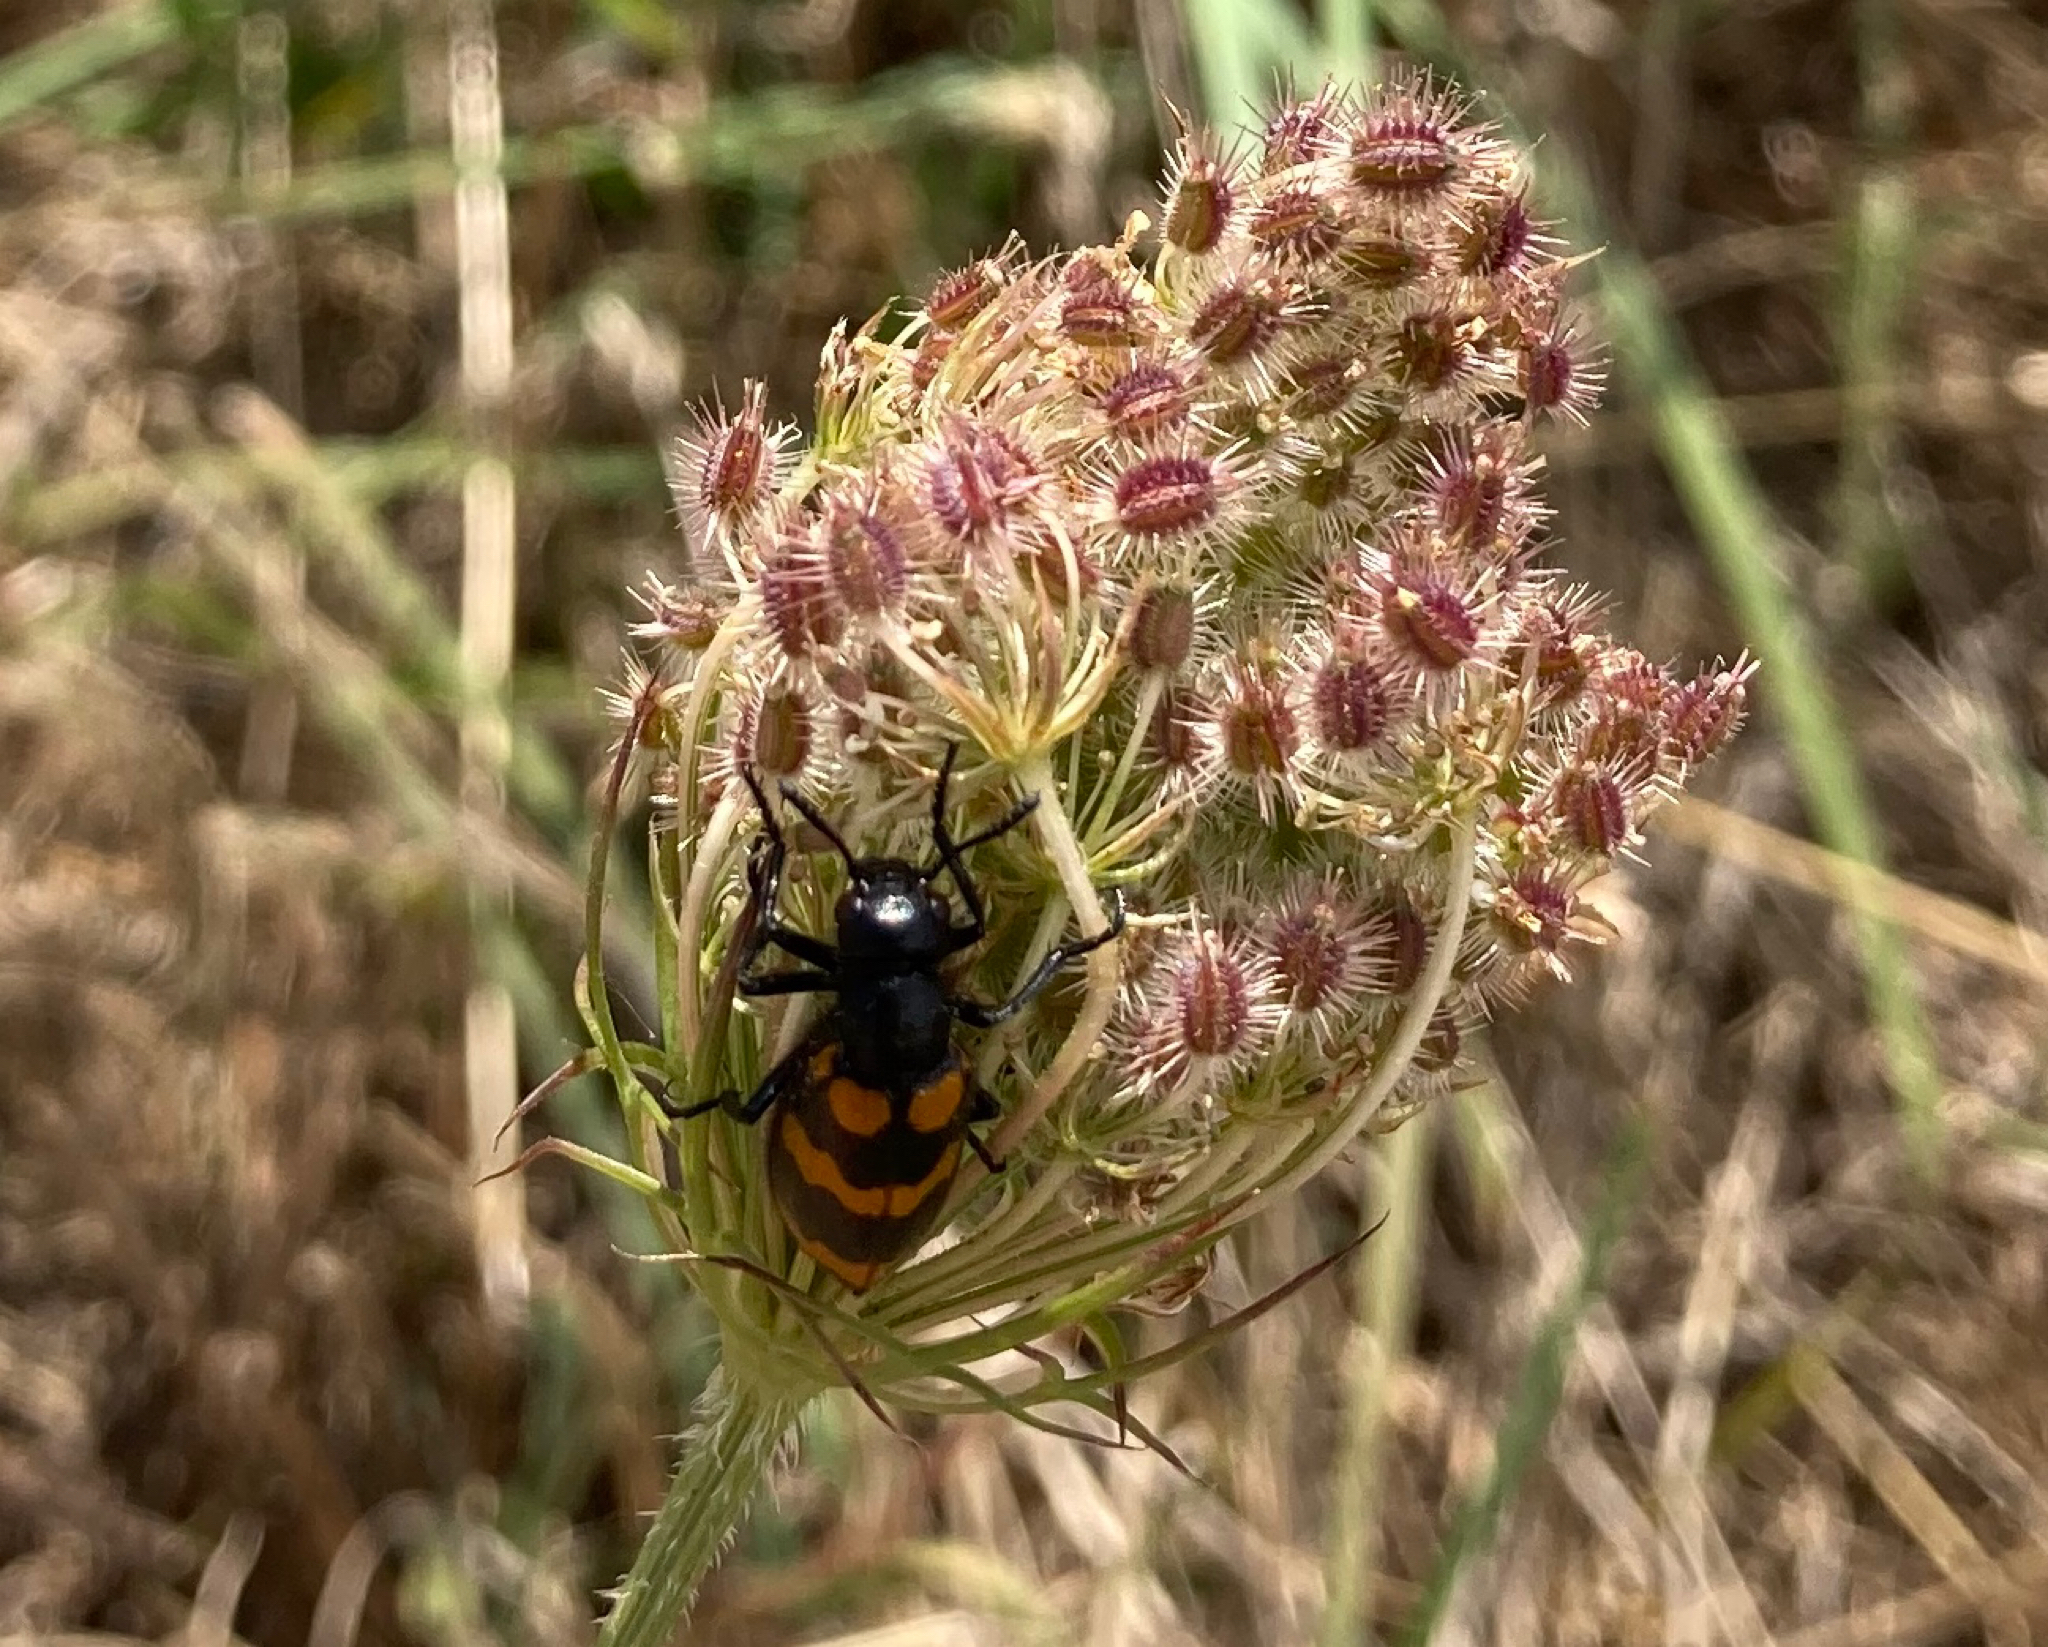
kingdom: Animalia
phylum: Arthropoda
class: Insecta
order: Coleoptera
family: Meloidae
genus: Mylabris
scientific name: Mylabris variabilis
